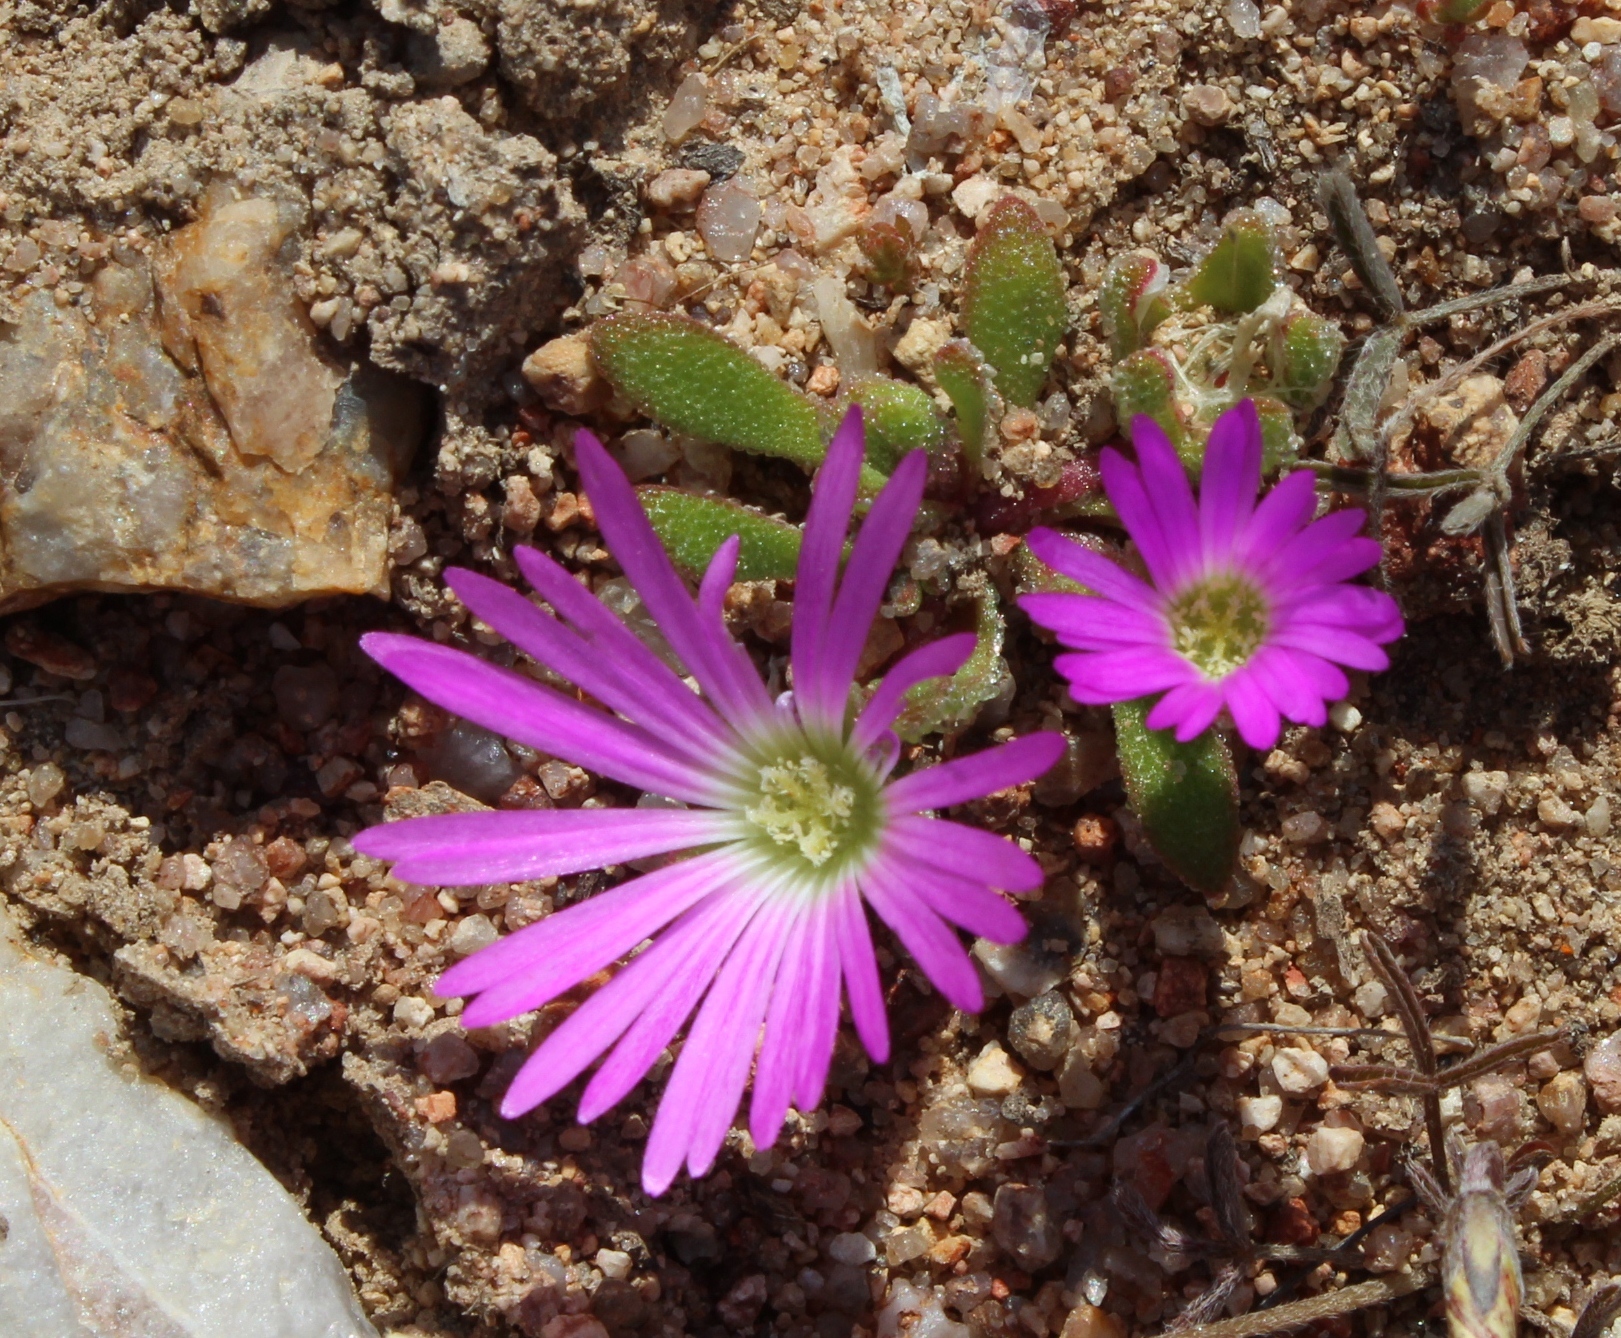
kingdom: Plantae
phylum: Tracheophyta
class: Magnoliopsida
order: Caryophyllales
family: Aizoaceae
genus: Cleretum
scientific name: Cleretum hestermalense
